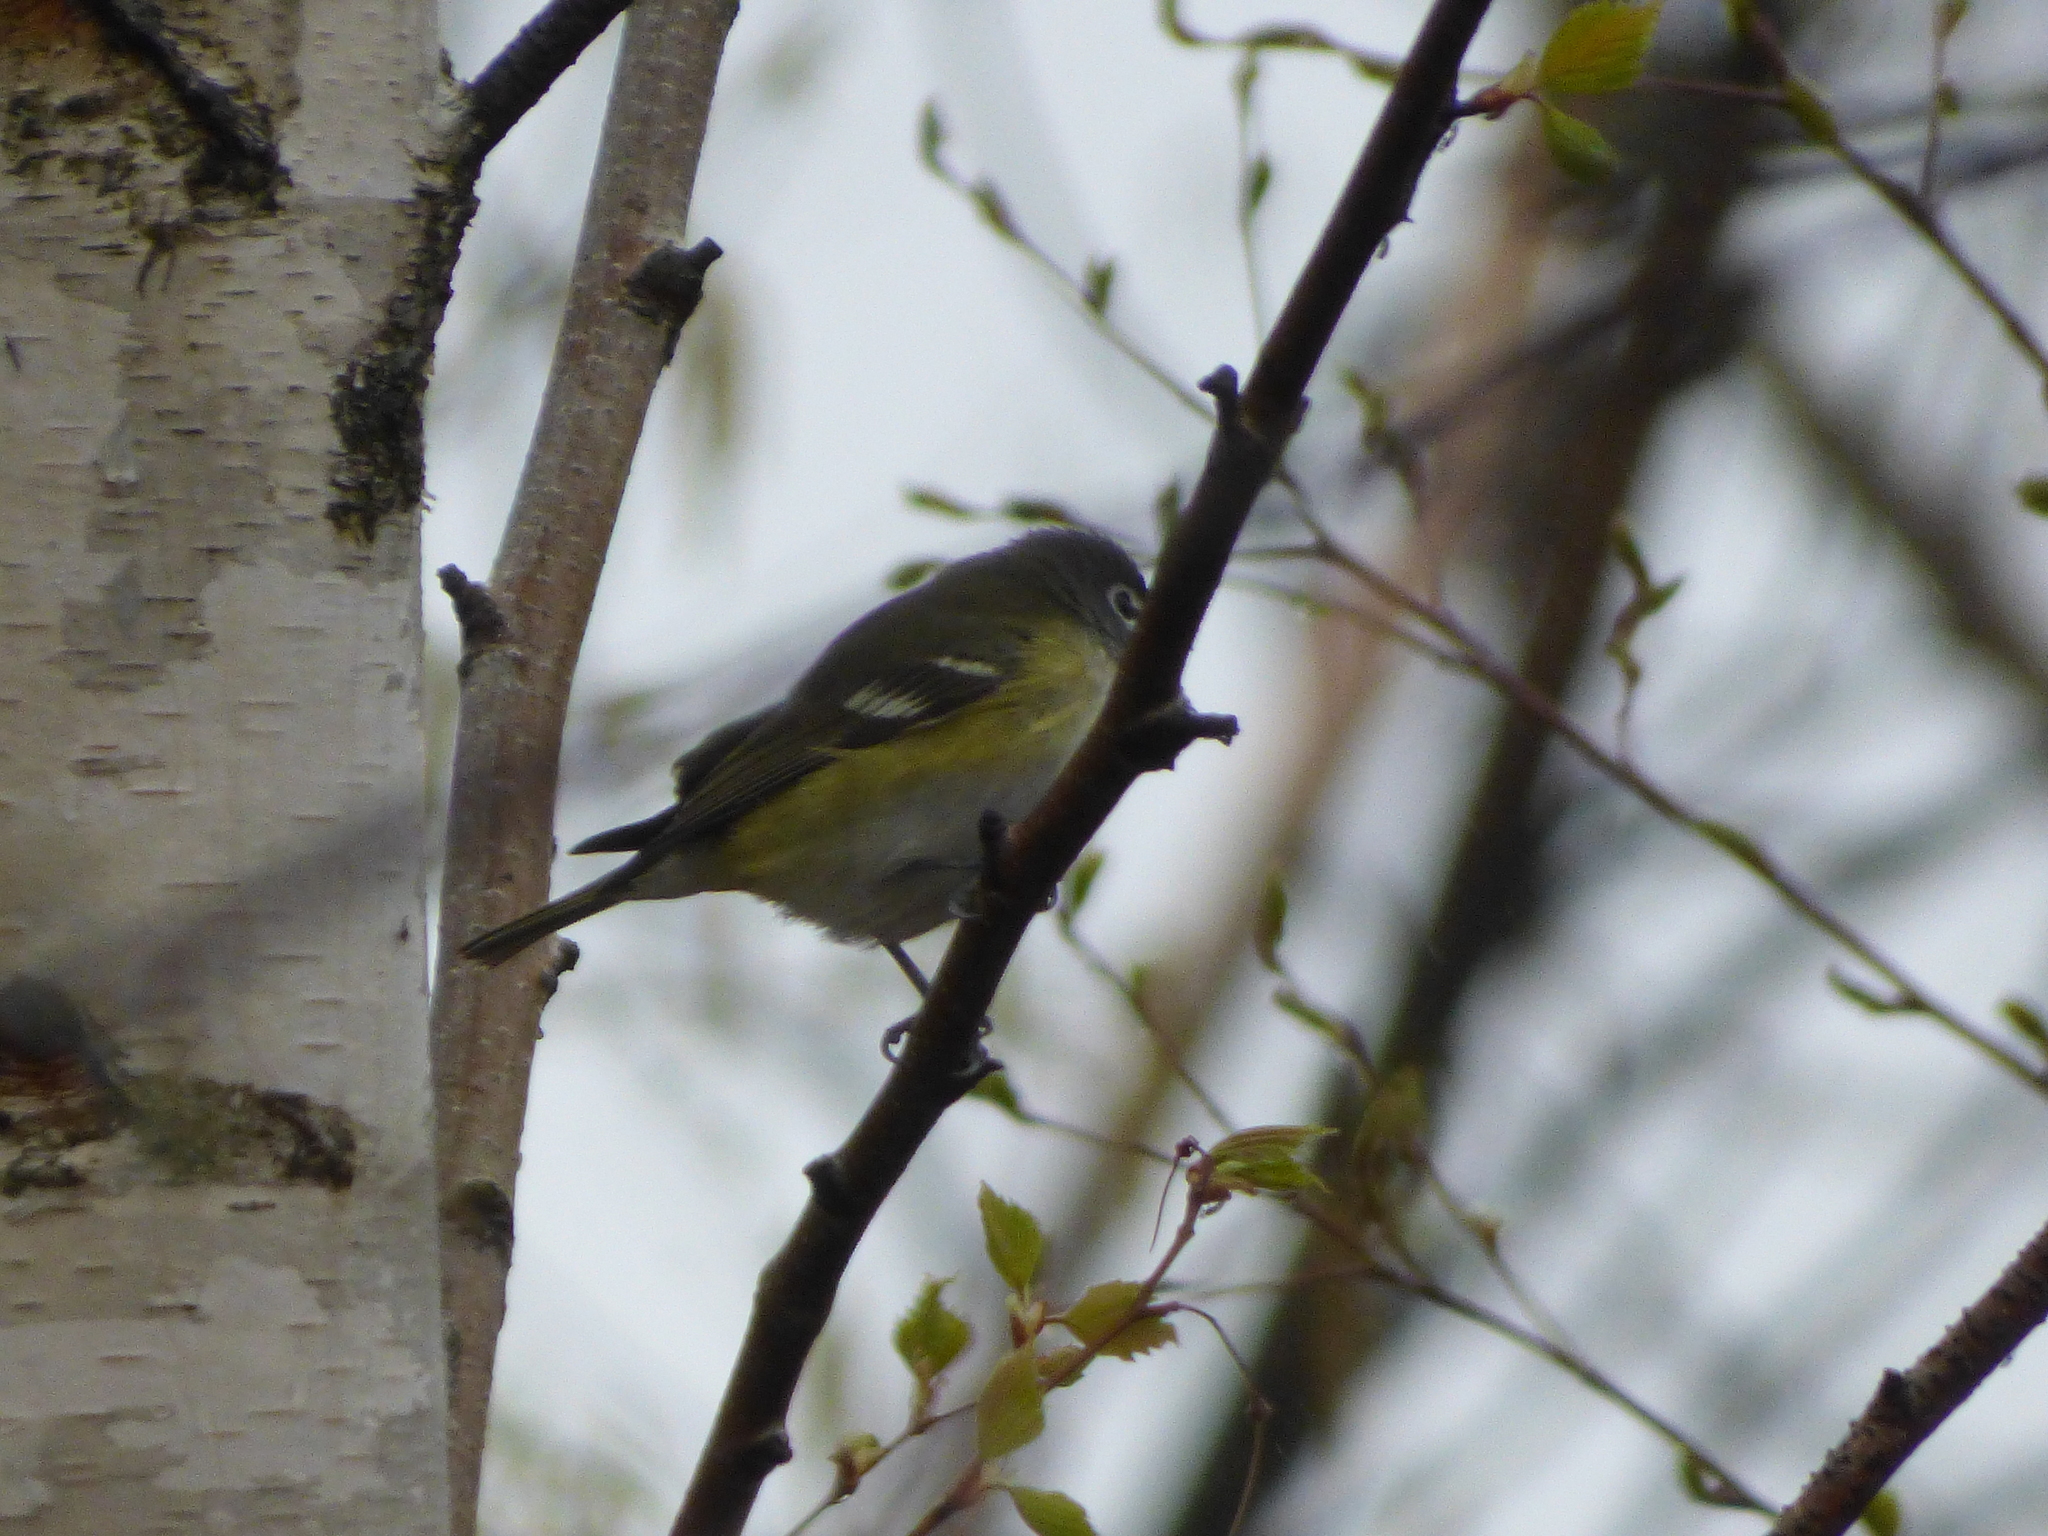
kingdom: Animalia
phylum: Chordata
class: Aves
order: Passeriformes
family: Vireonidae
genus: Vireo
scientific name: Vireo solitarius
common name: Blue-headed vireo
